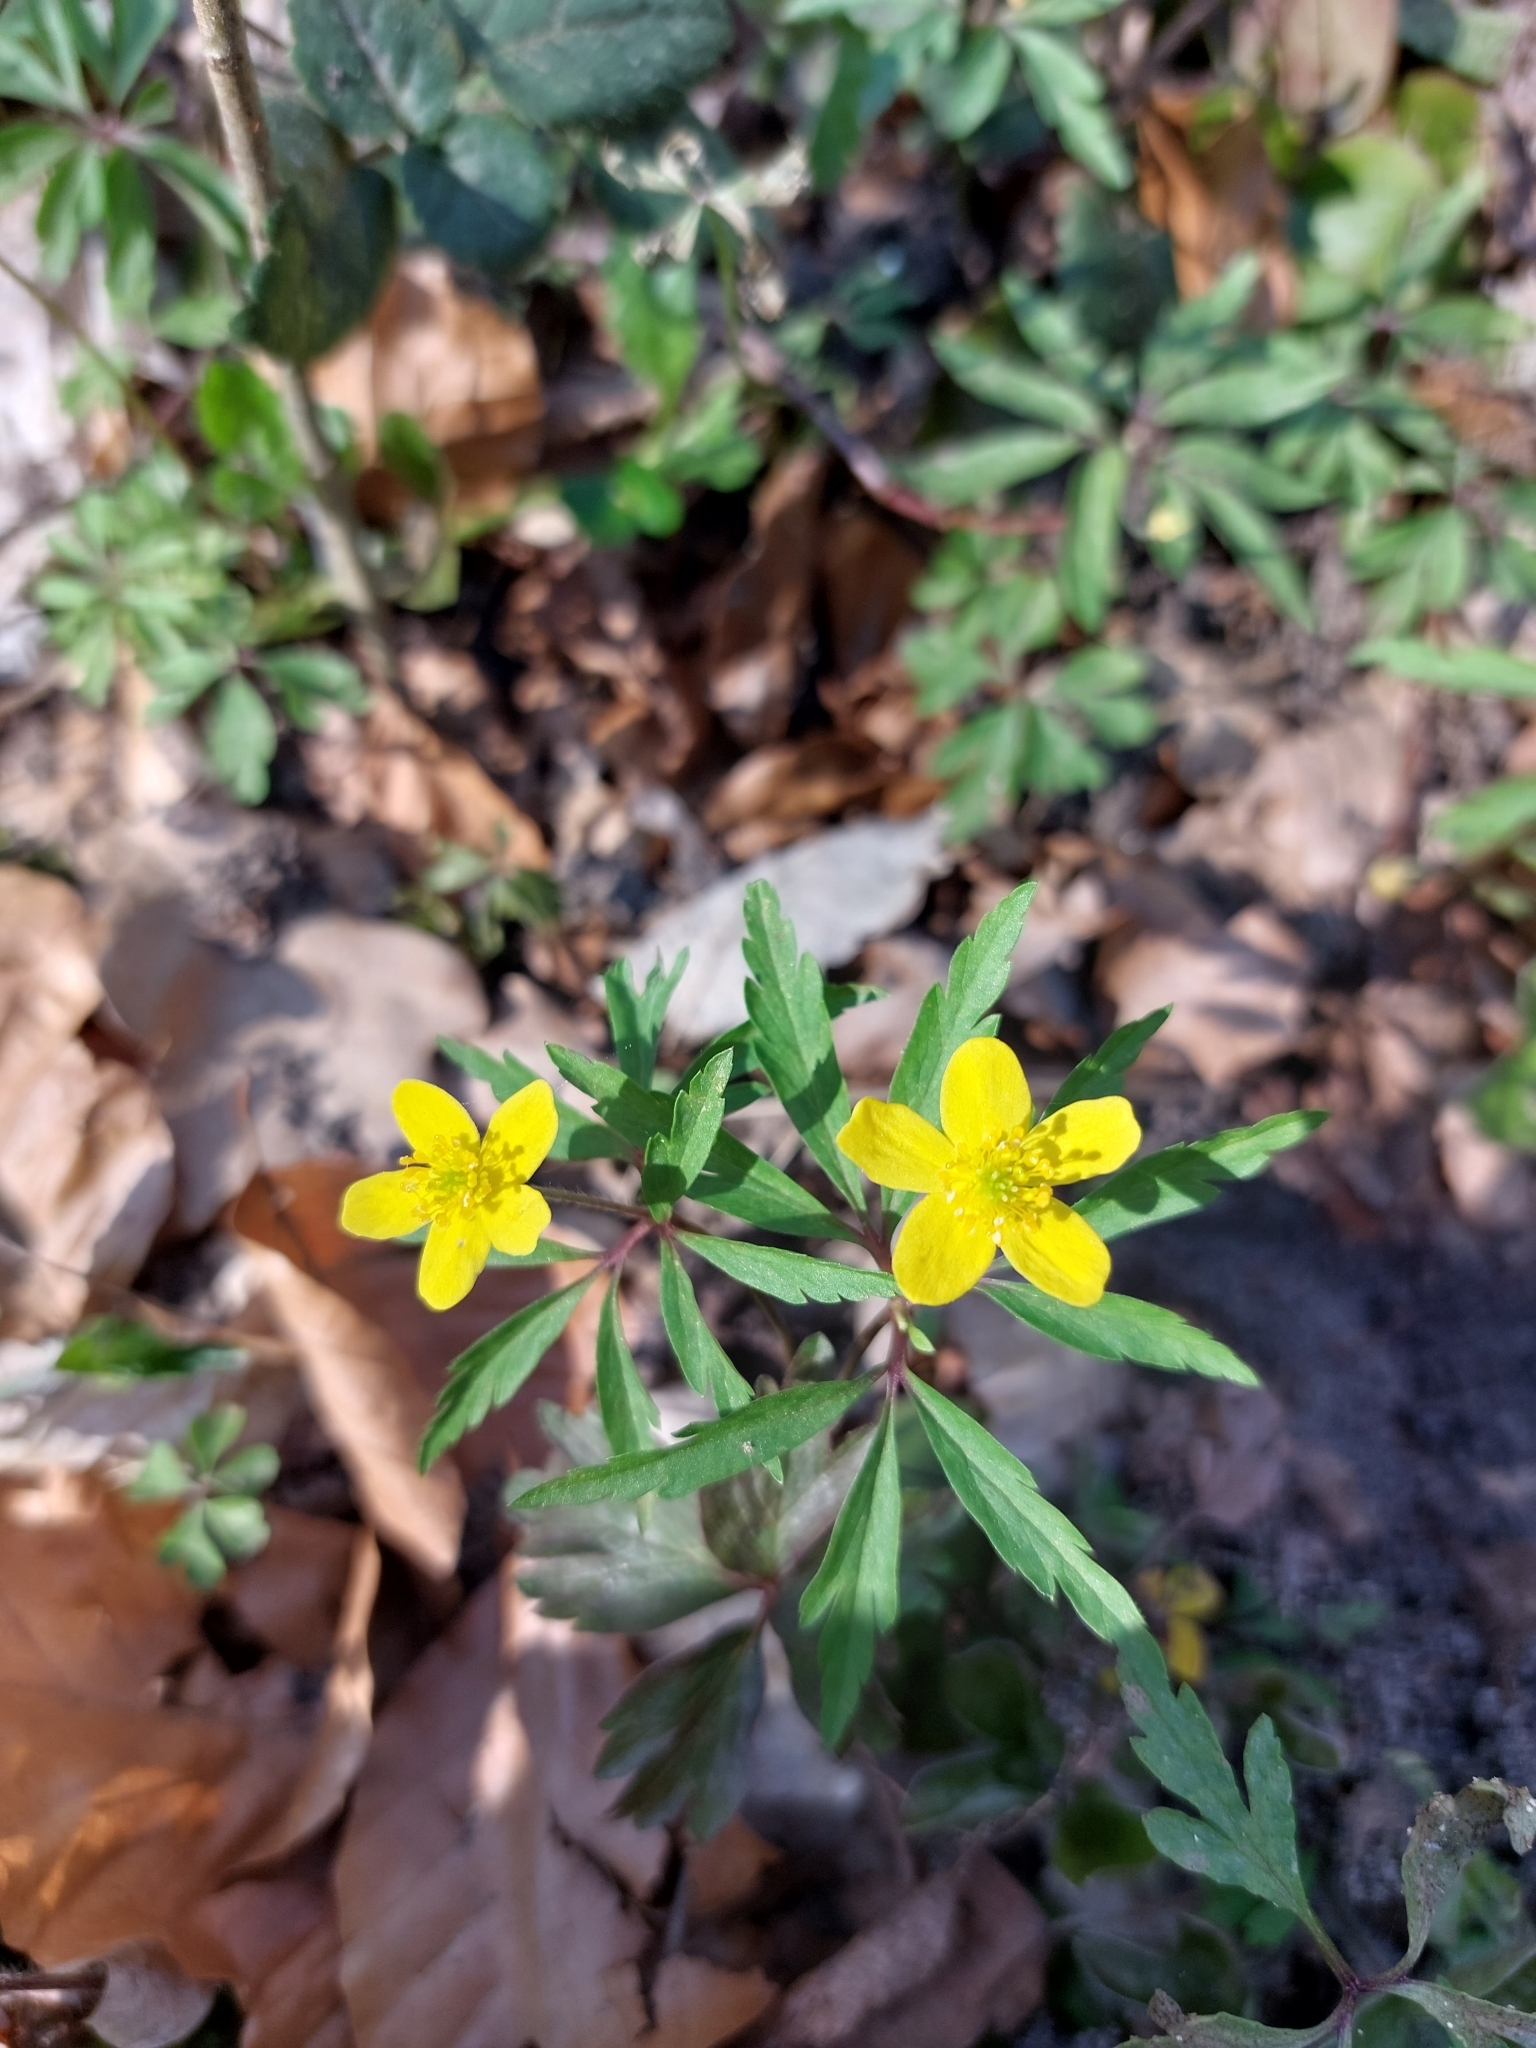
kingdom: Plantae
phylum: Tracheophyta
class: Magnoliopsida
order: Ranunculales
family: Ranunculaceae
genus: Anemone
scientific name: Anemone ranunculoides
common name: Yellow anemone
